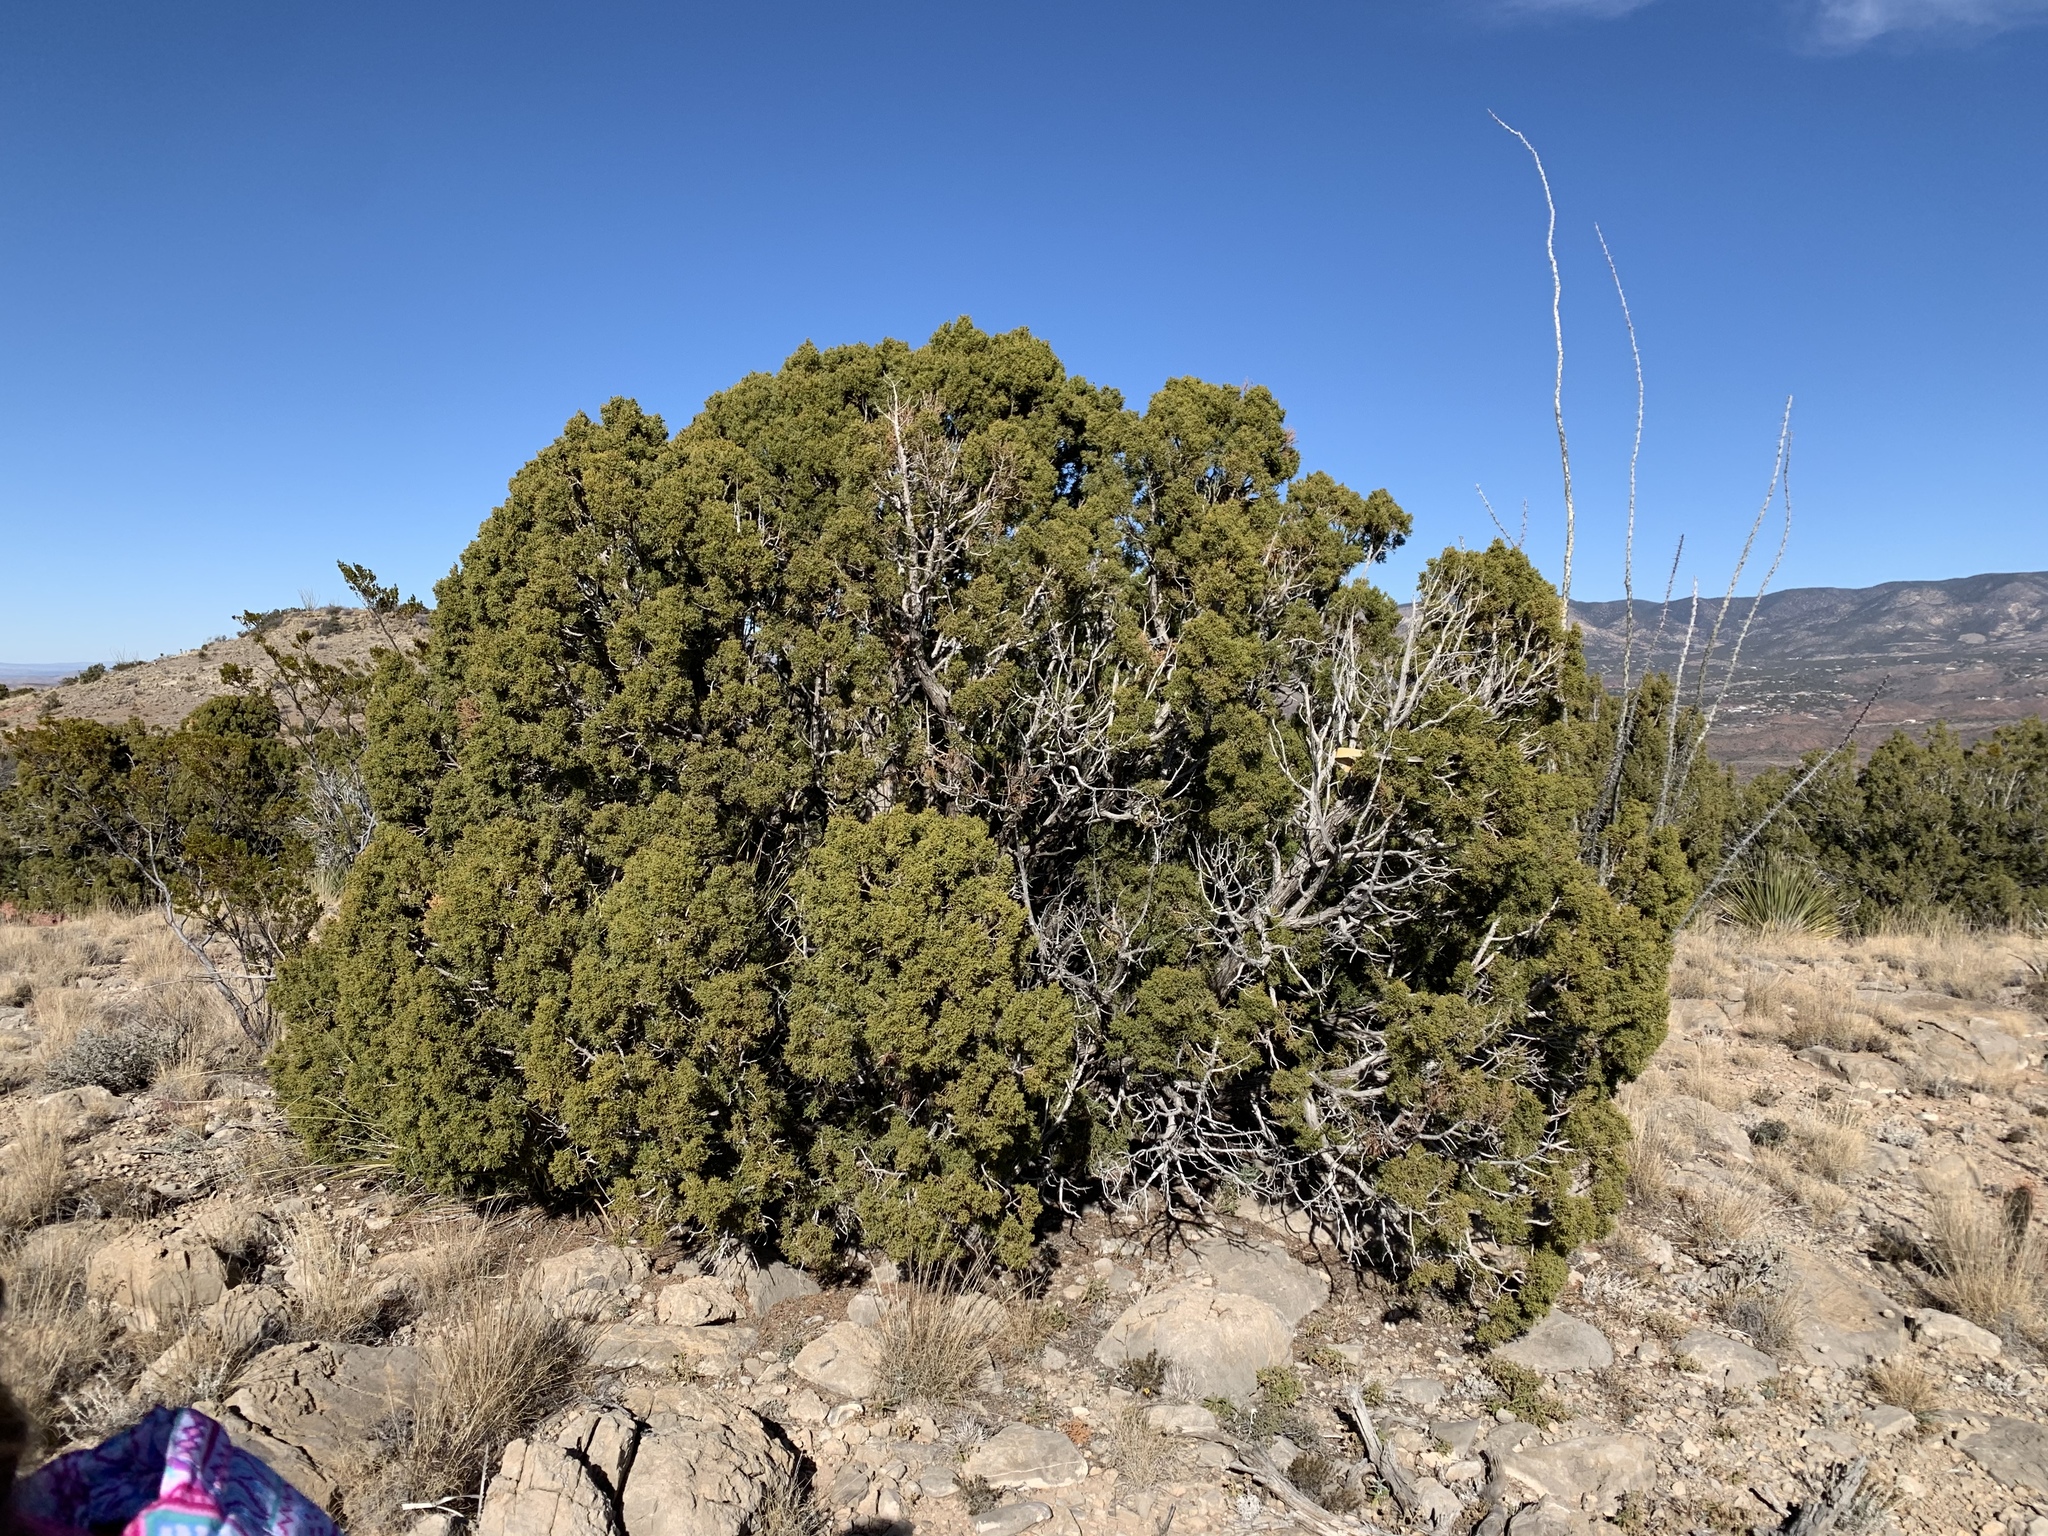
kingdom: Plantae
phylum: Tracheophyta
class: Pinopsida
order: Pinales
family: Cupressaceae
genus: Juniperus
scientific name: Juniperus monosperma
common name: One-seed juniper
